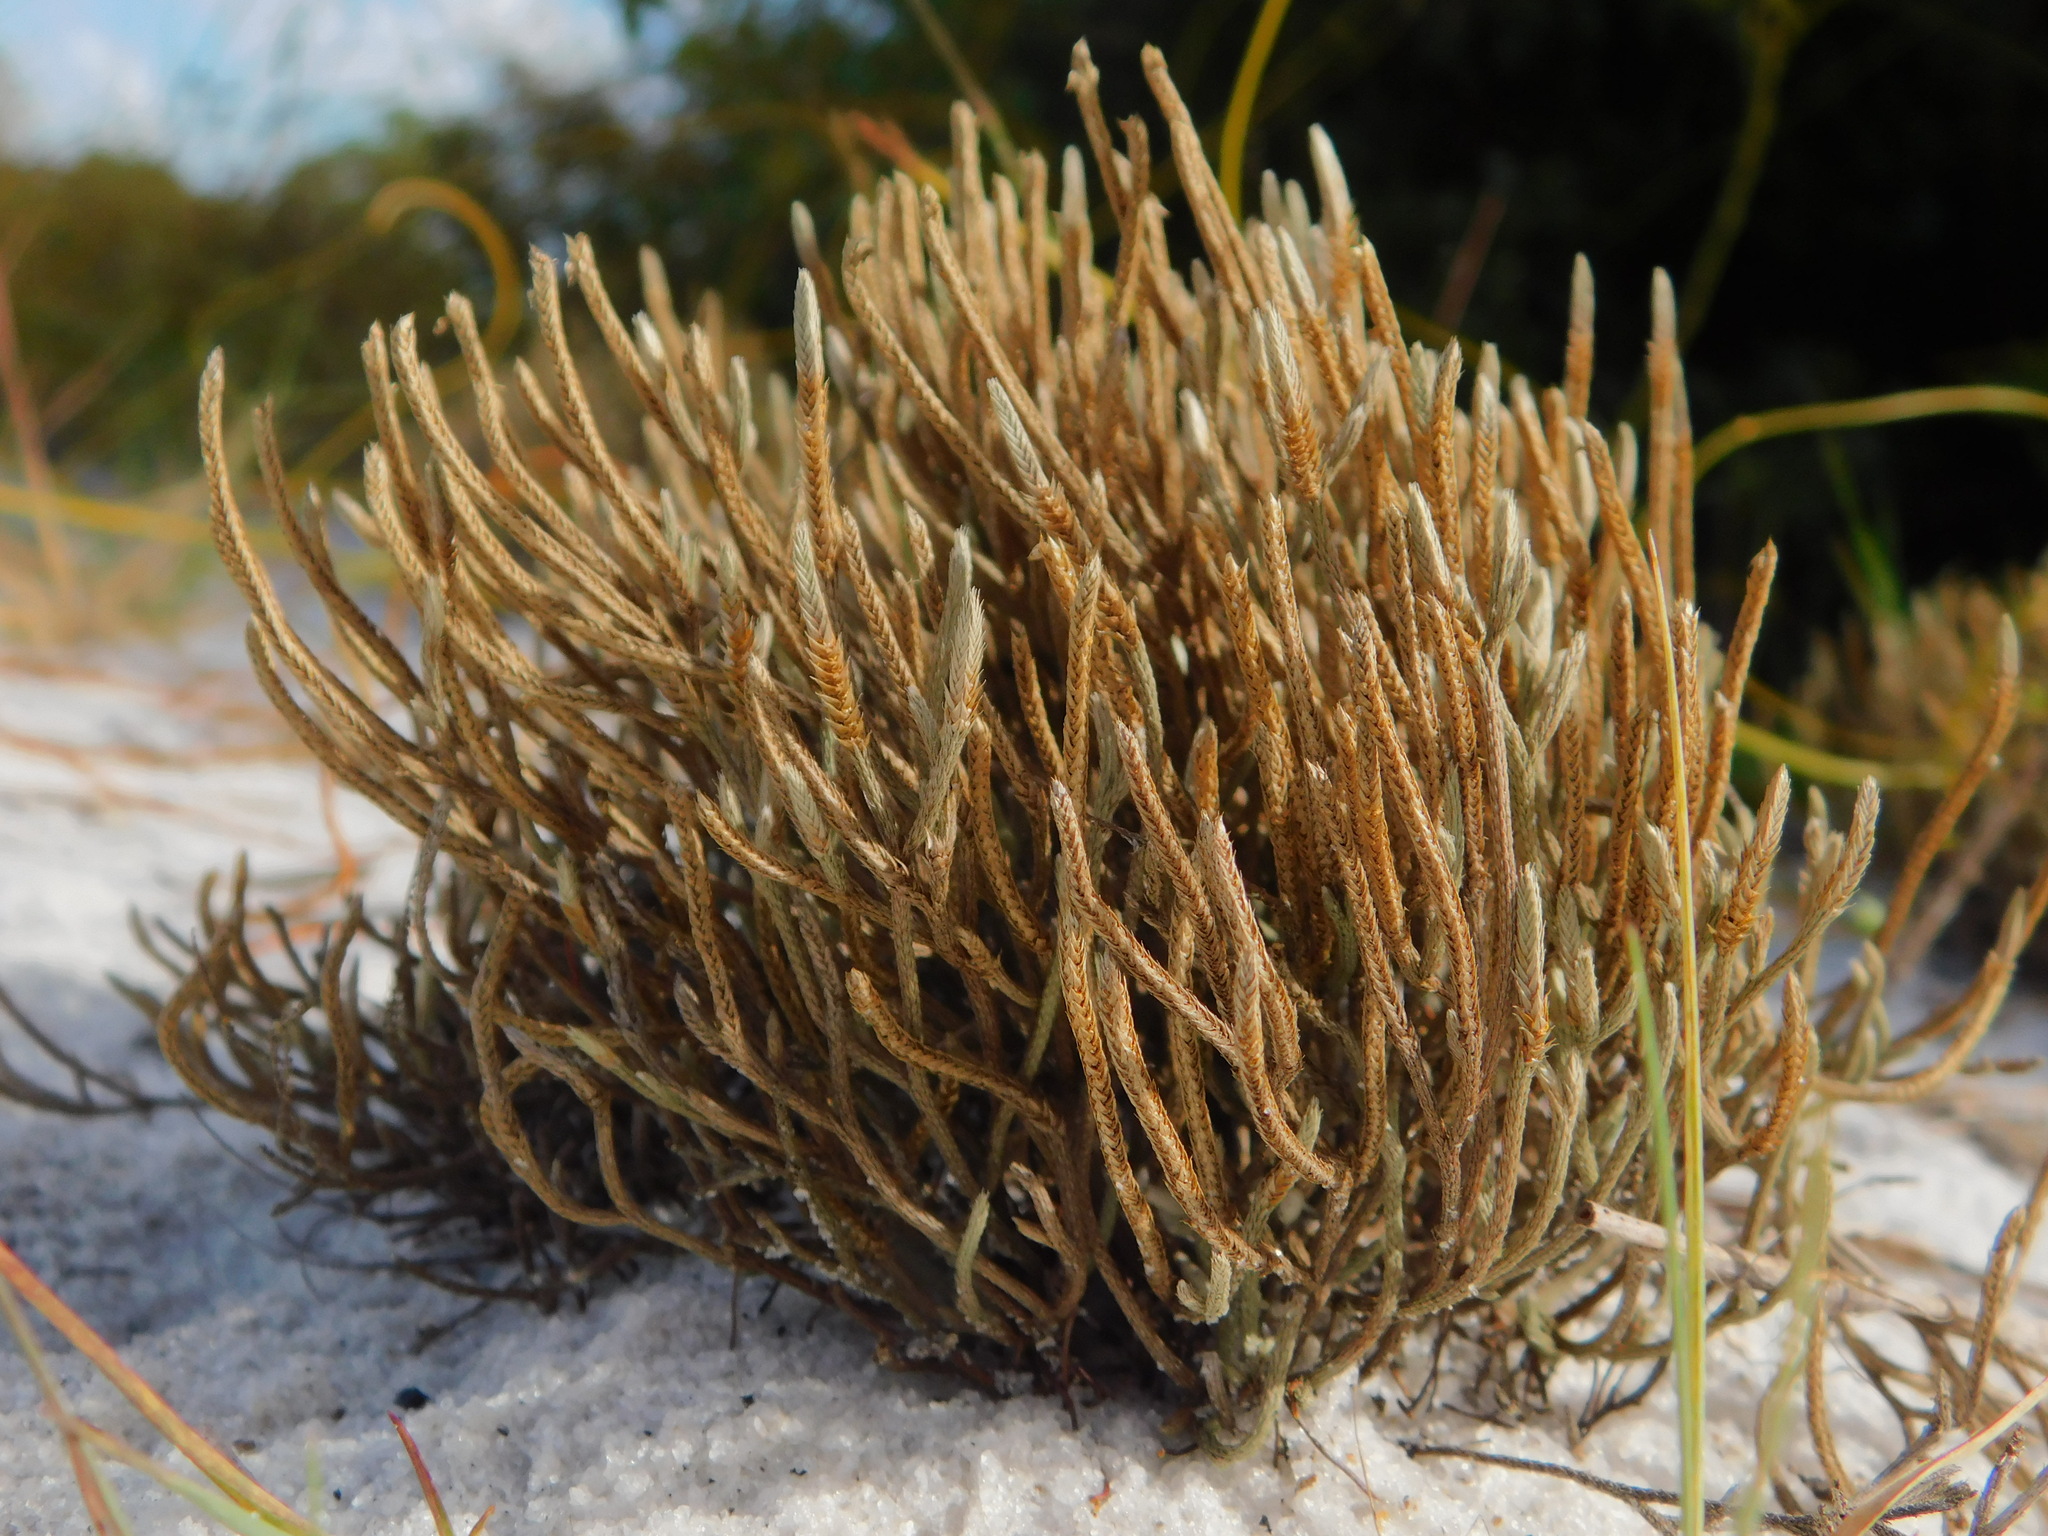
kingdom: Plantae
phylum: Tracheophyta
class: Lycopodiopsida
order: Selaginellales
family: Selaginellaceae
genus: Selaginella
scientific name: Selaginella arenicola
